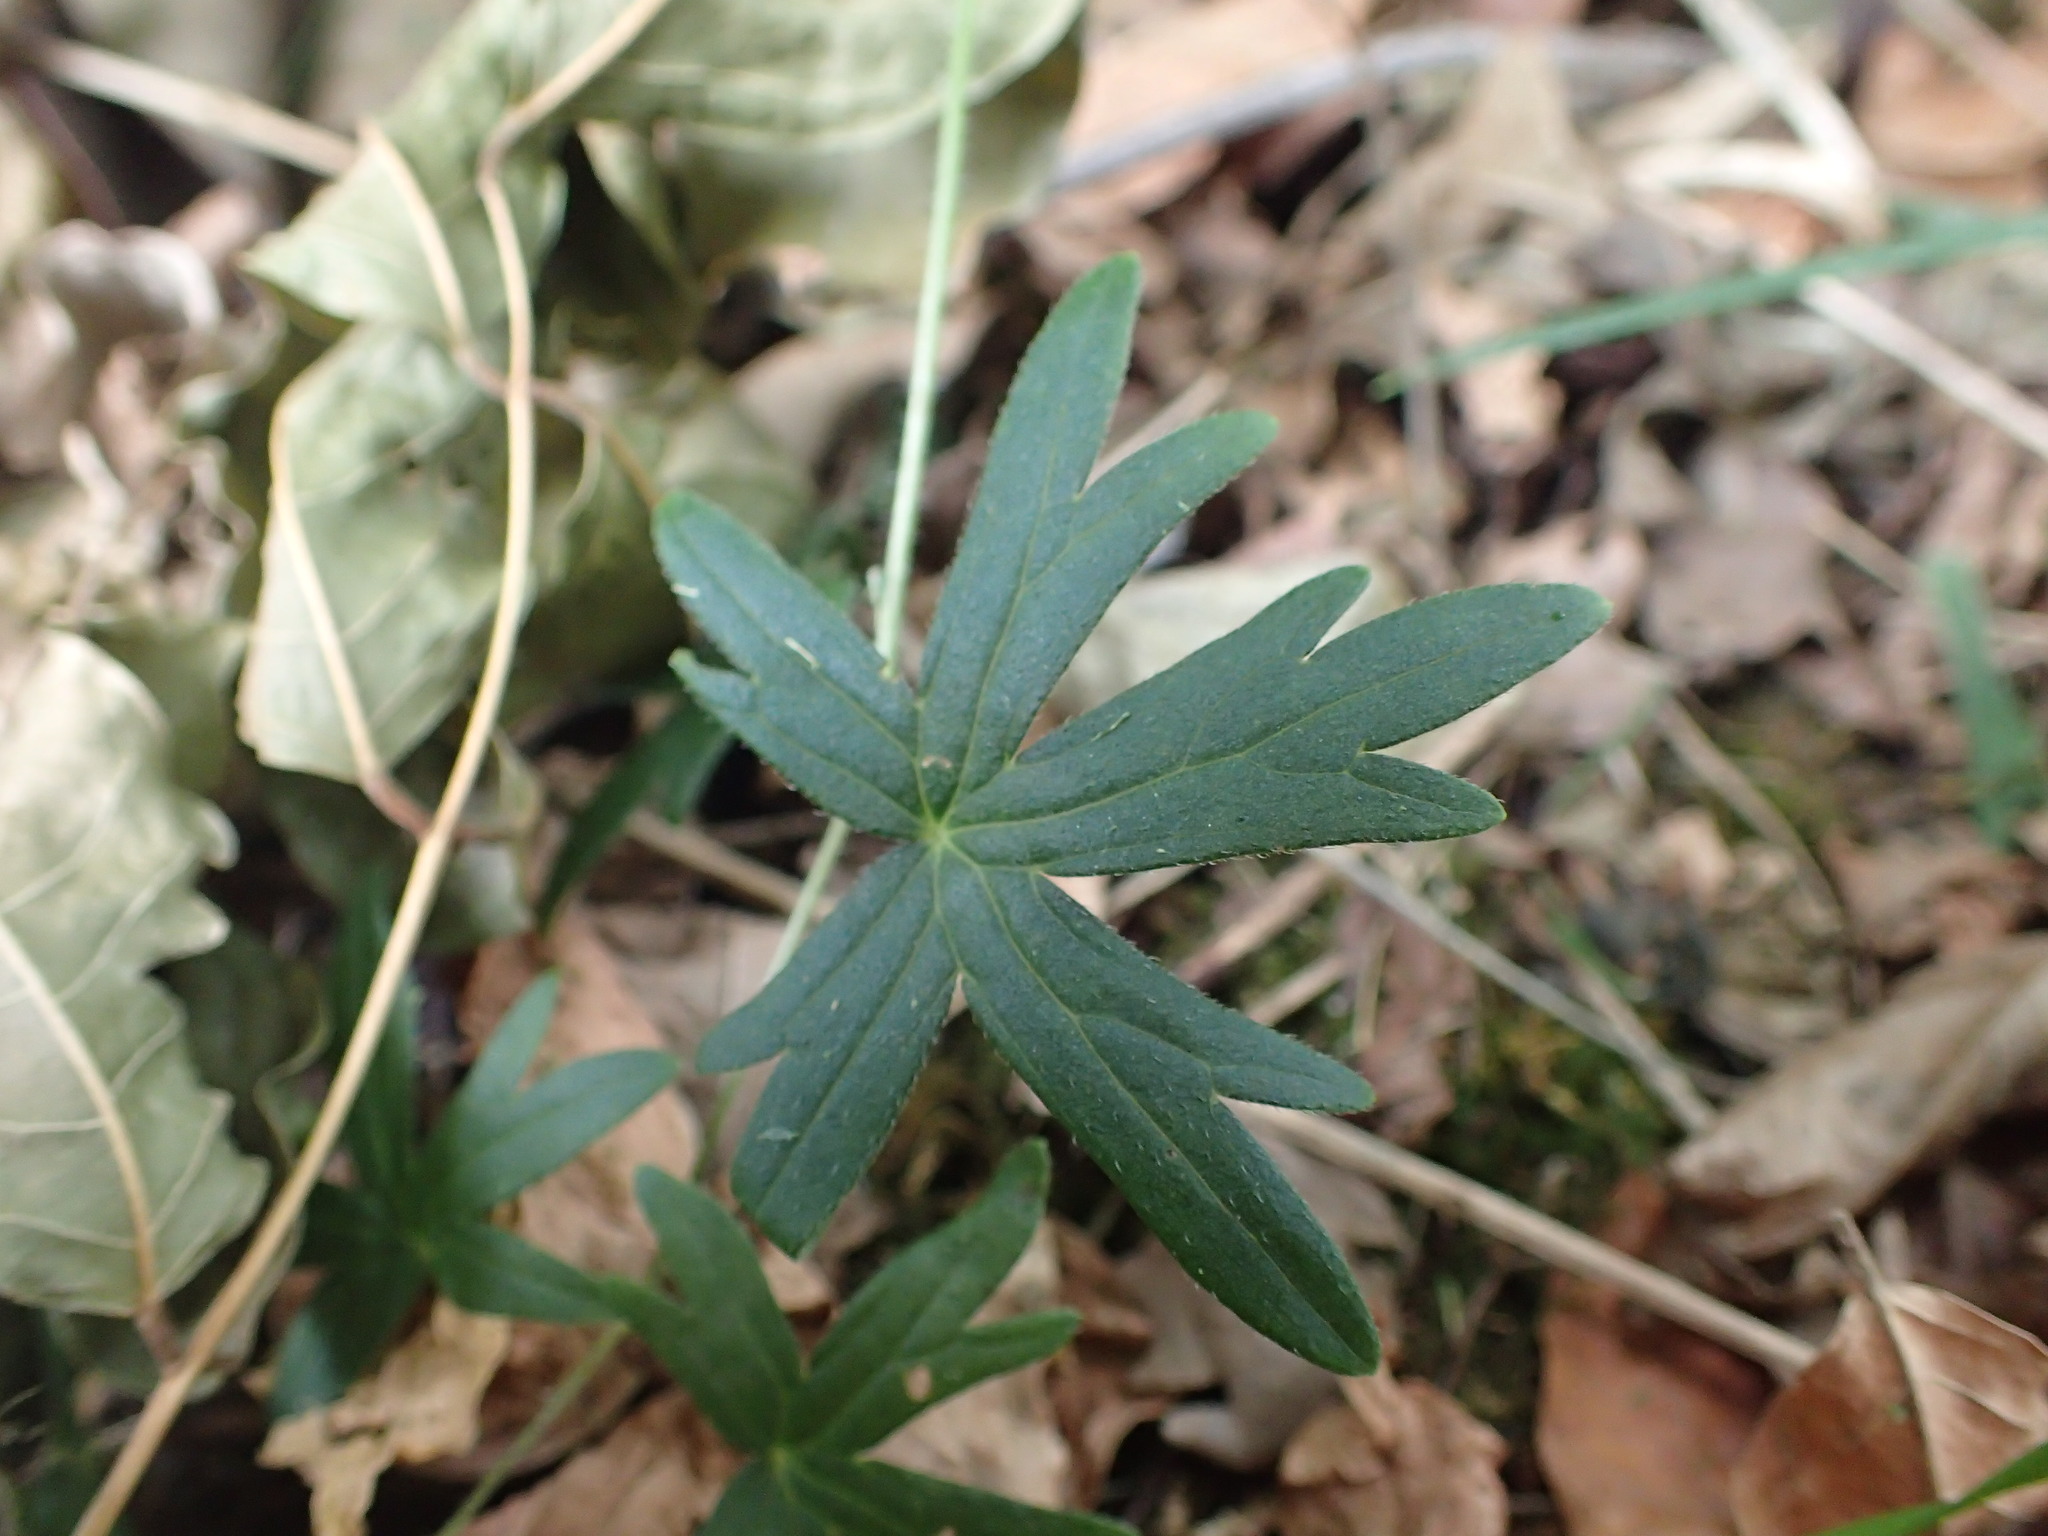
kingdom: Plantae
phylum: Tracheophyta
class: Magnoliopsida
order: Ranunculales
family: Ranunculaceae
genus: Delphinium
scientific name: Delphinium tricorne
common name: Dwarf larkspur
